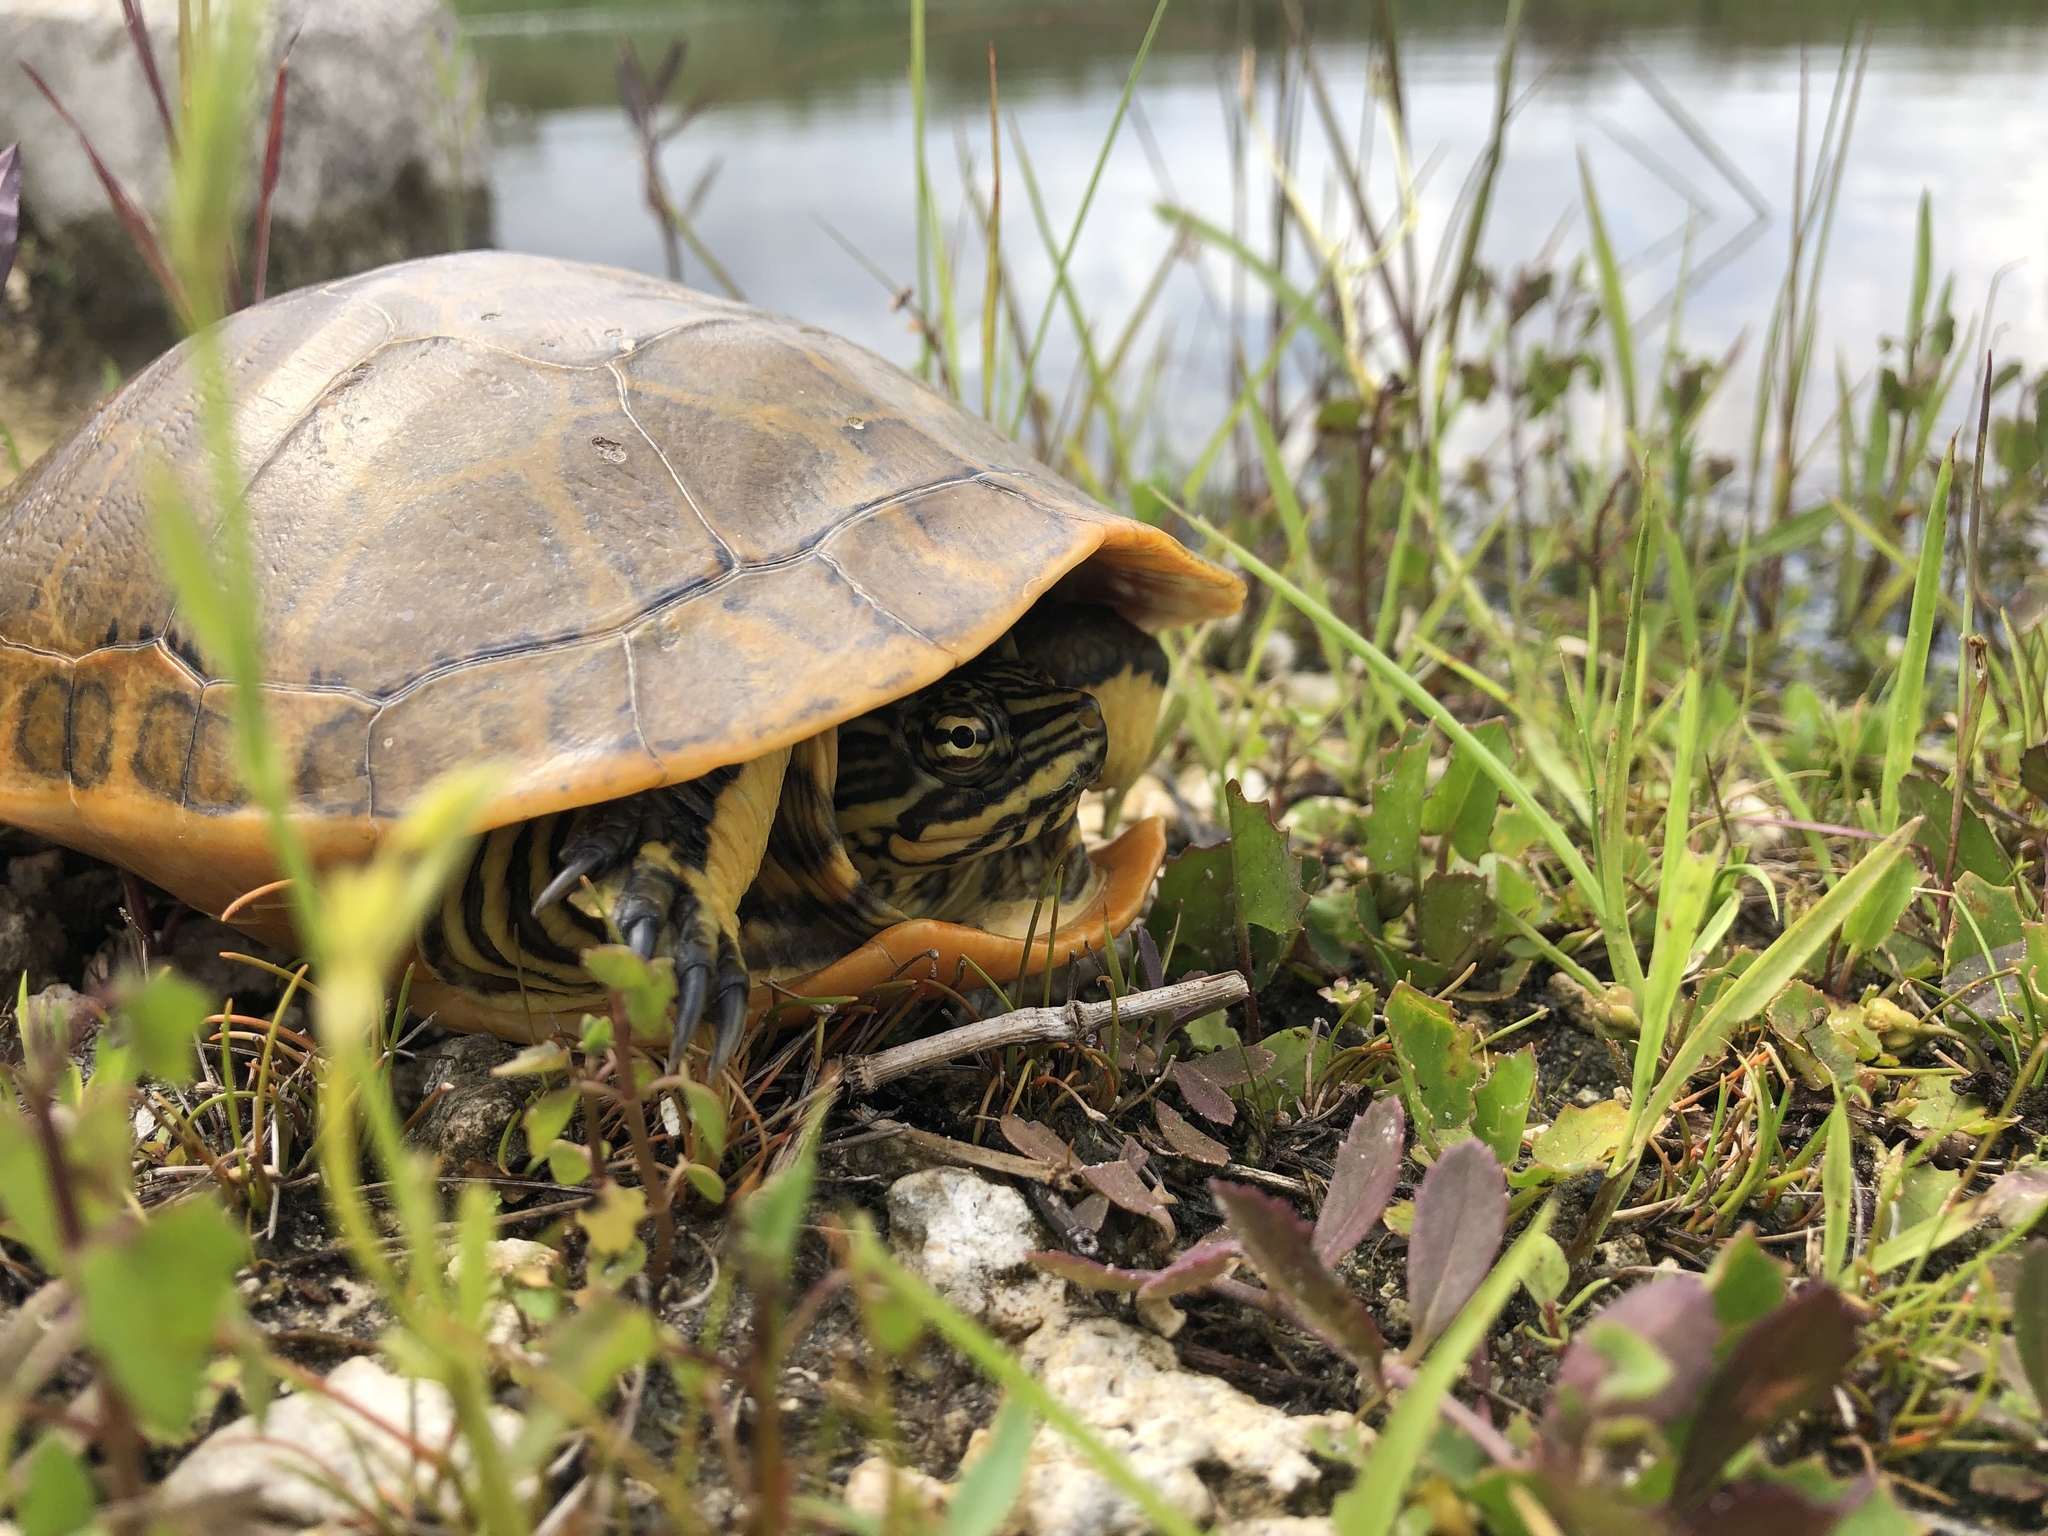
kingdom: Animalia
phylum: Chordata
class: Testudines
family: Emydidae
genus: Deirochelys
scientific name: Deirochelys reticularia
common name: Chicken turtle
